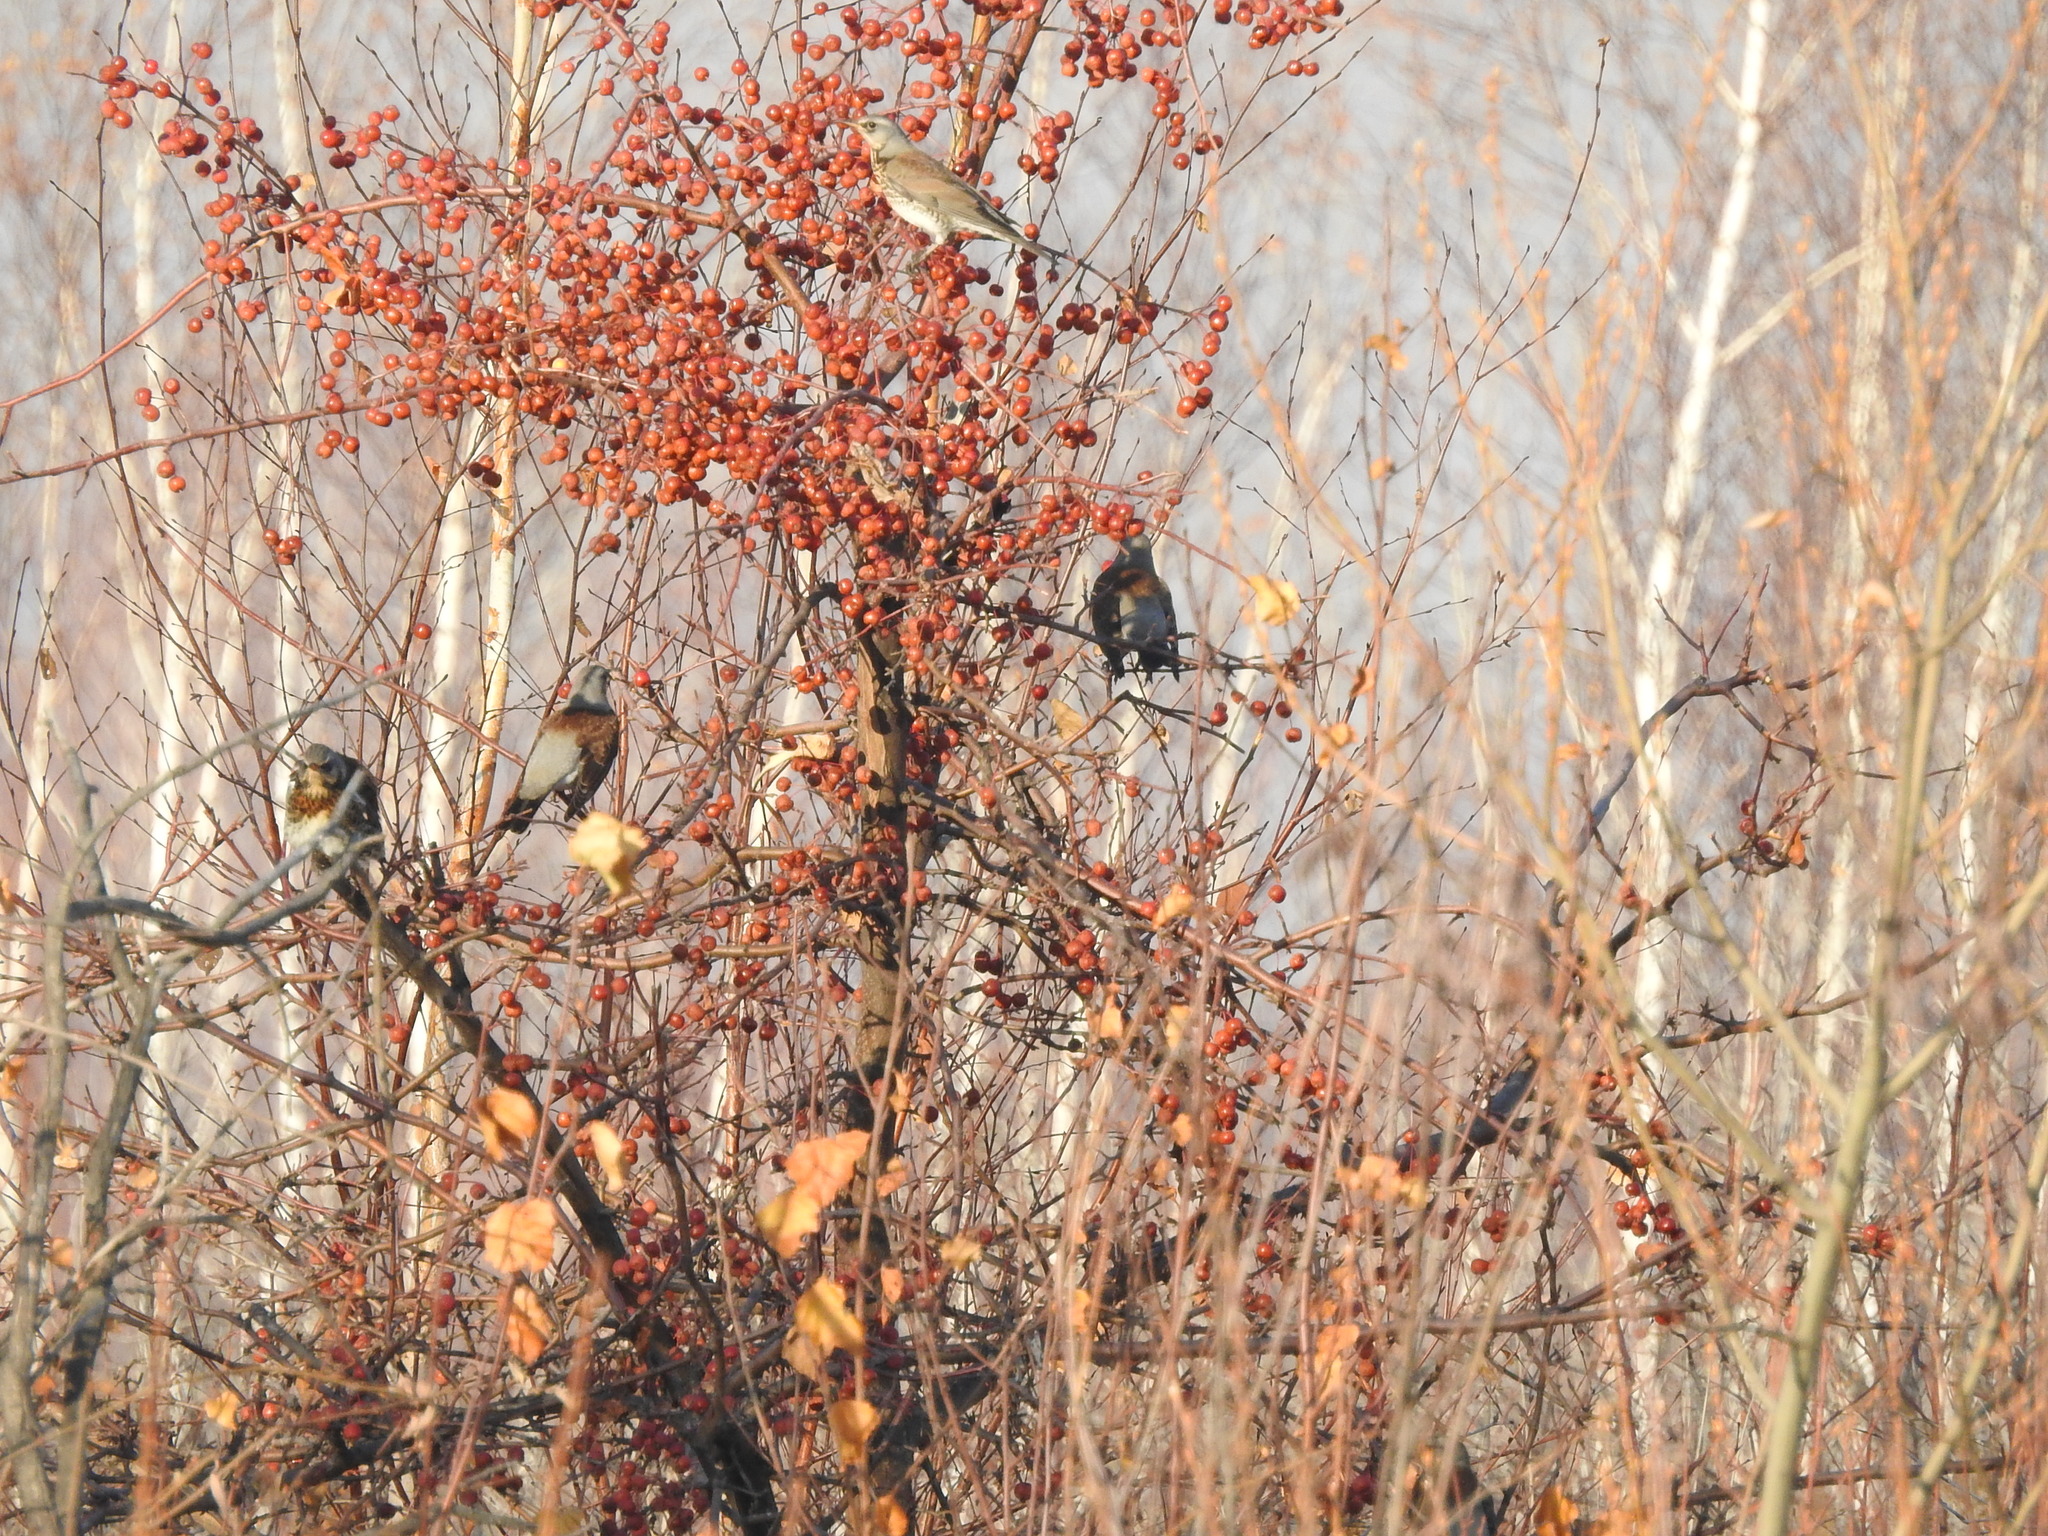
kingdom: Animalia
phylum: Chordata
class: Aves
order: Passeriformes
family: Turdidae
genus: Turdus
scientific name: Turdus pilaris
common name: Fieldfare
